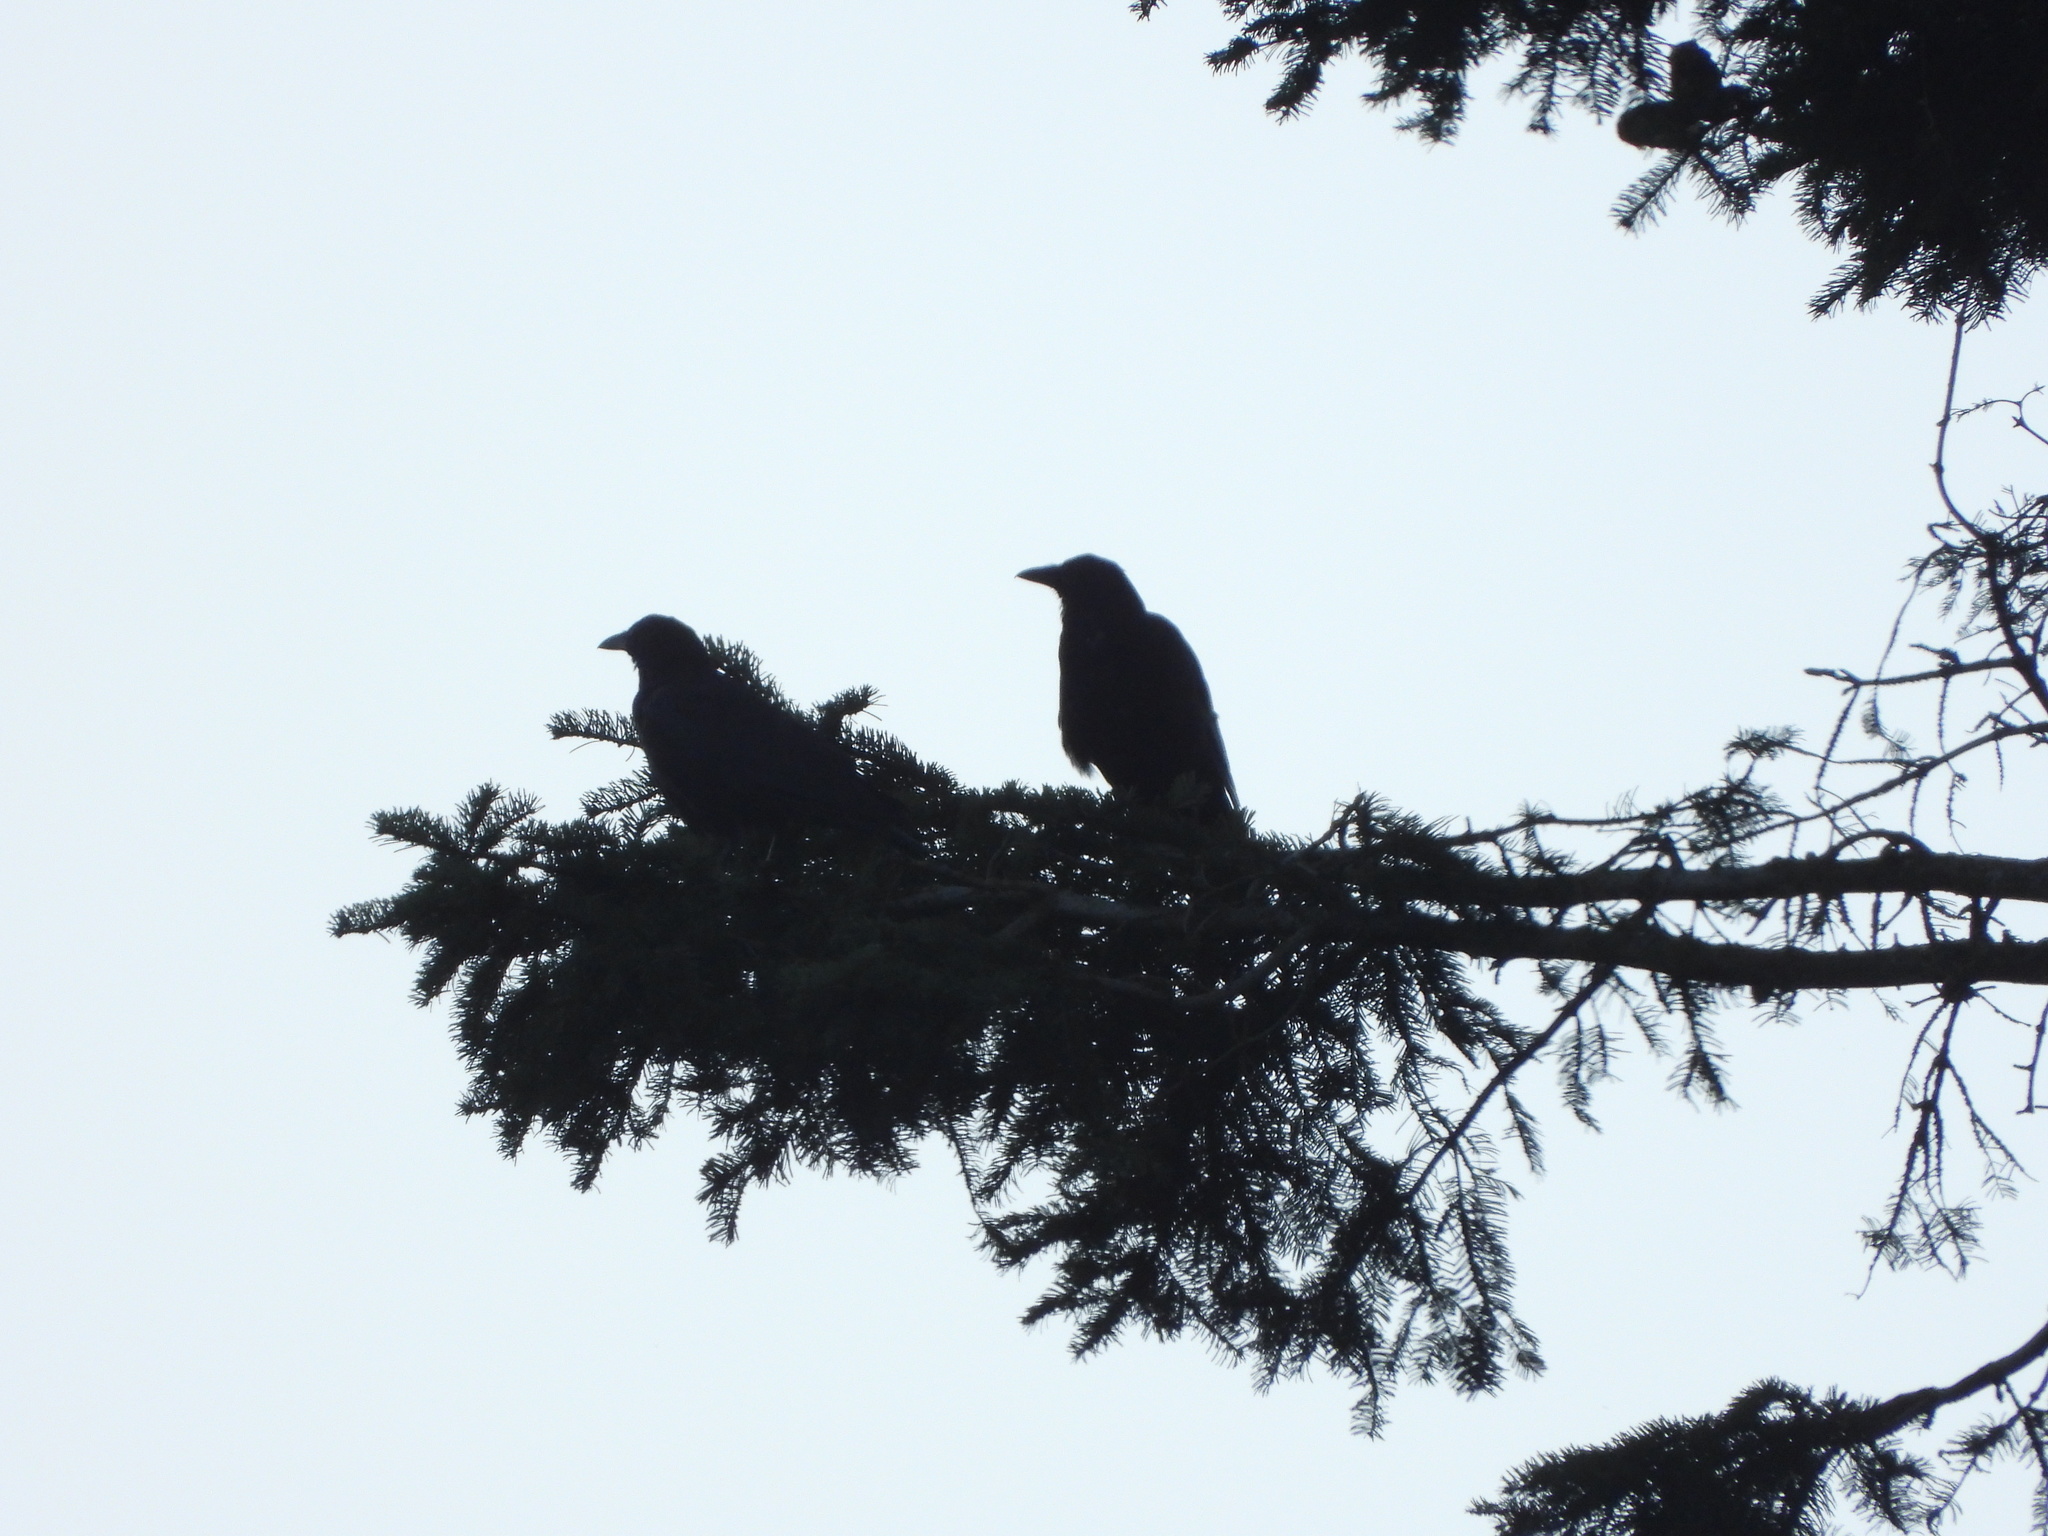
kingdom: Animalia
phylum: Chordata
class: Aves
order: Passeriformes
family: Corvidae
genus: Corvus
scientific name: Corvus brachyrhynchos
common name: American crow
